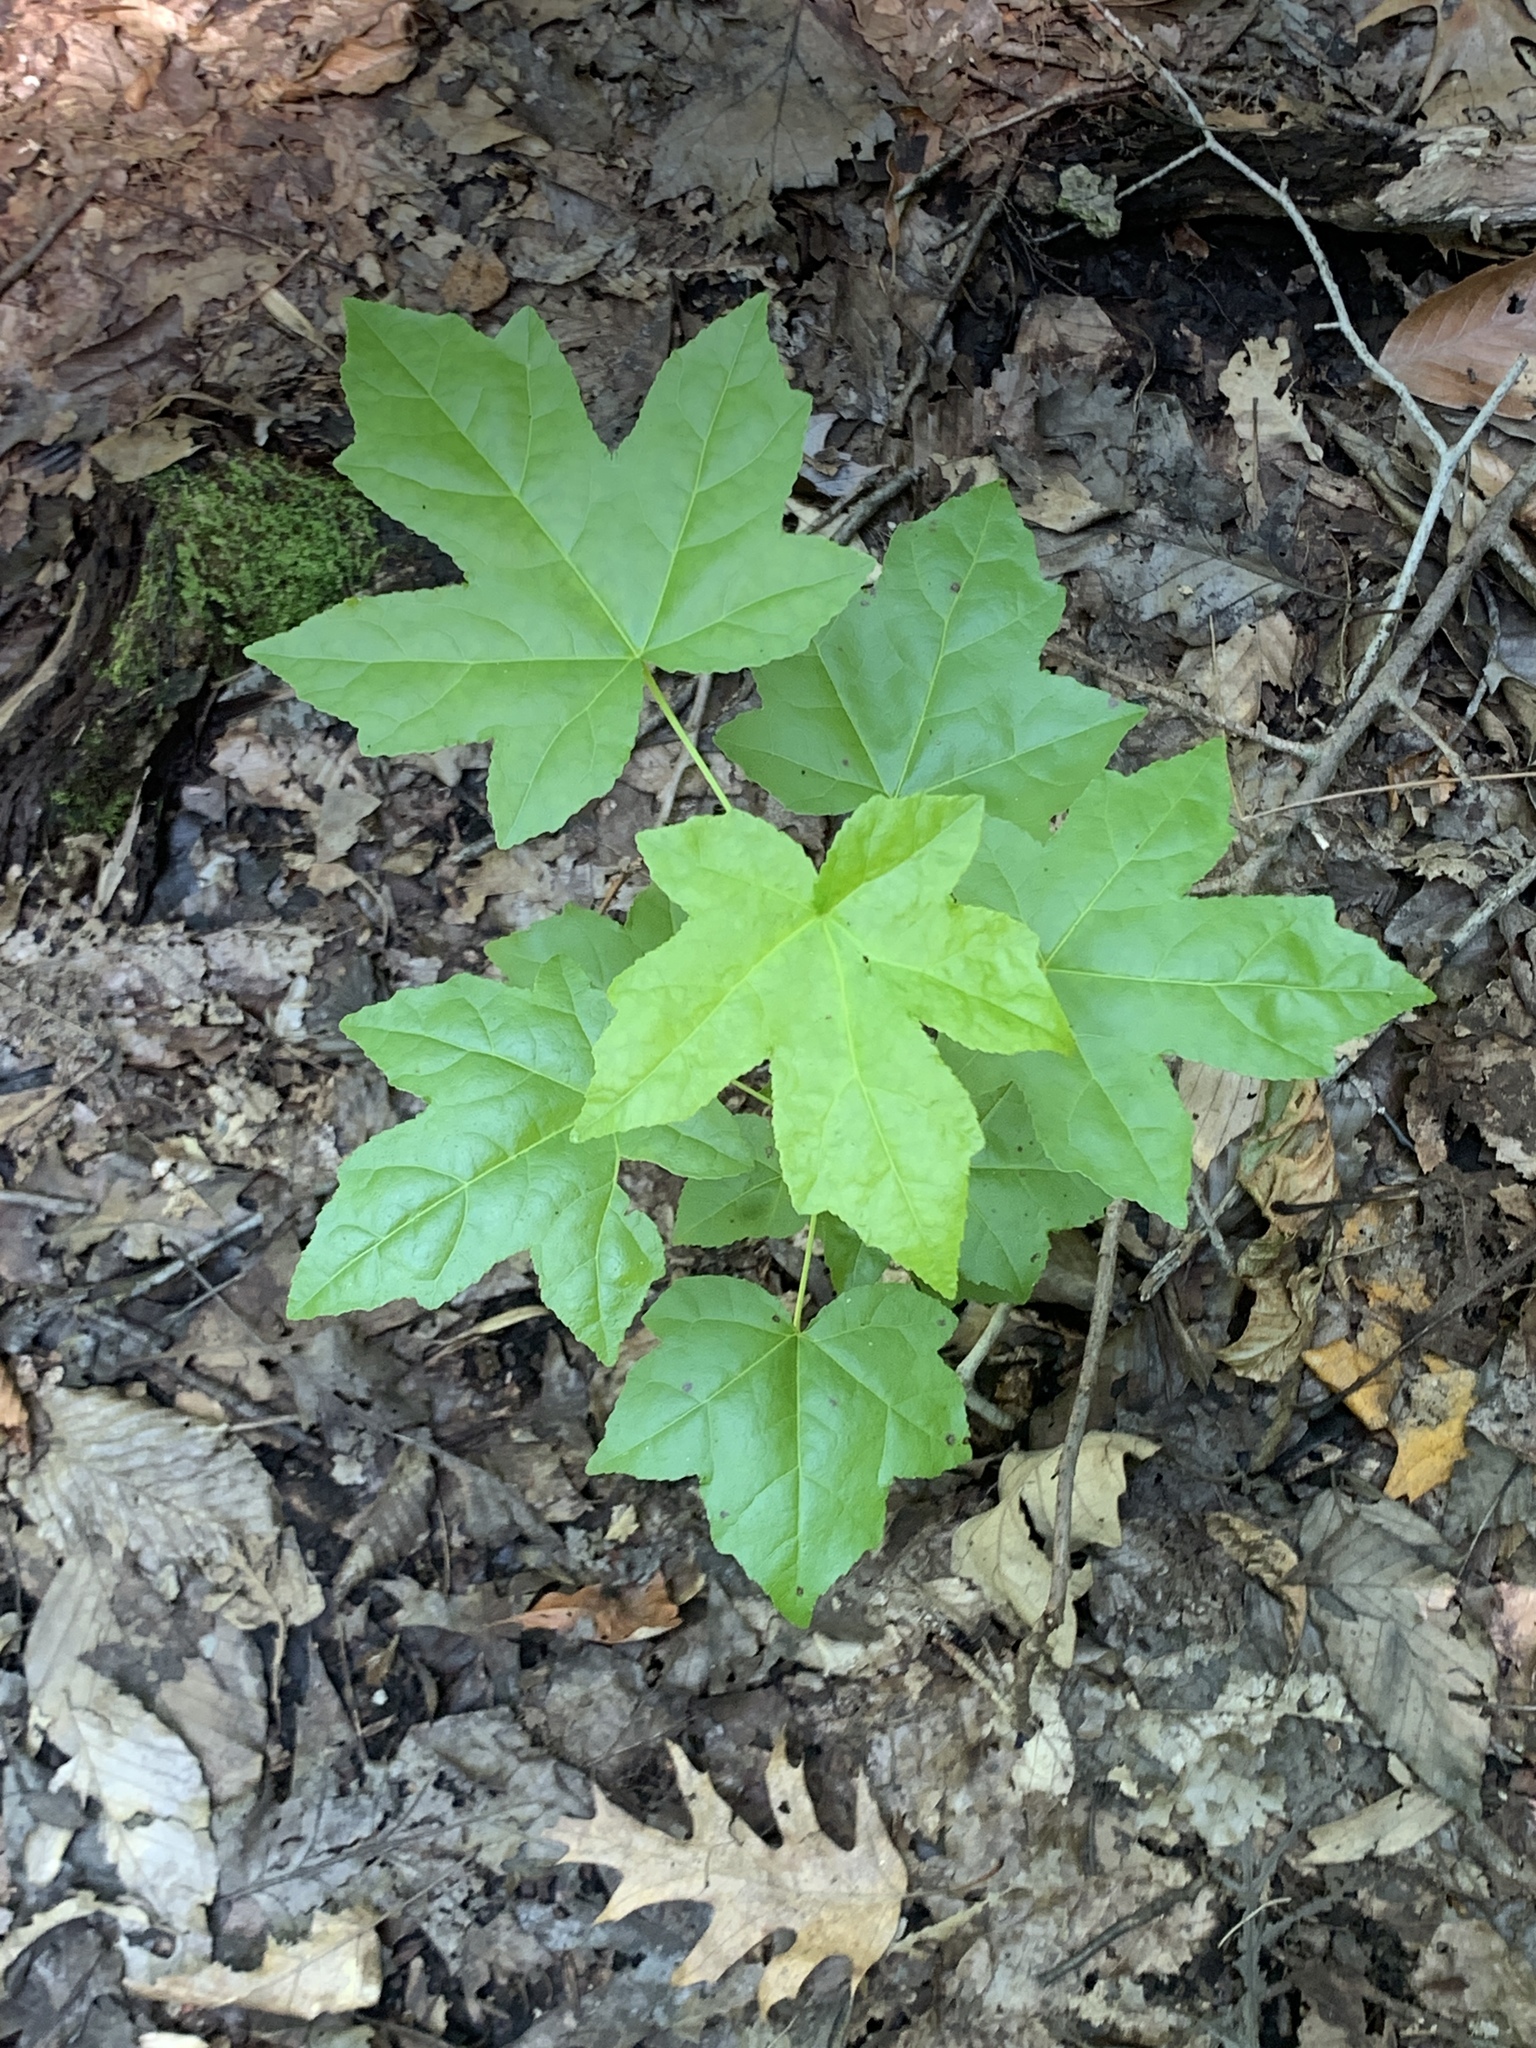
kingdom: Plantae
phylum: Tracheophyta
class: Magnoliopsida
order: Saxifragales
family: Altingiaceae
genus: Liquidambar
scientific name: Liquidambar styraciflua
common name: Sweet gum
